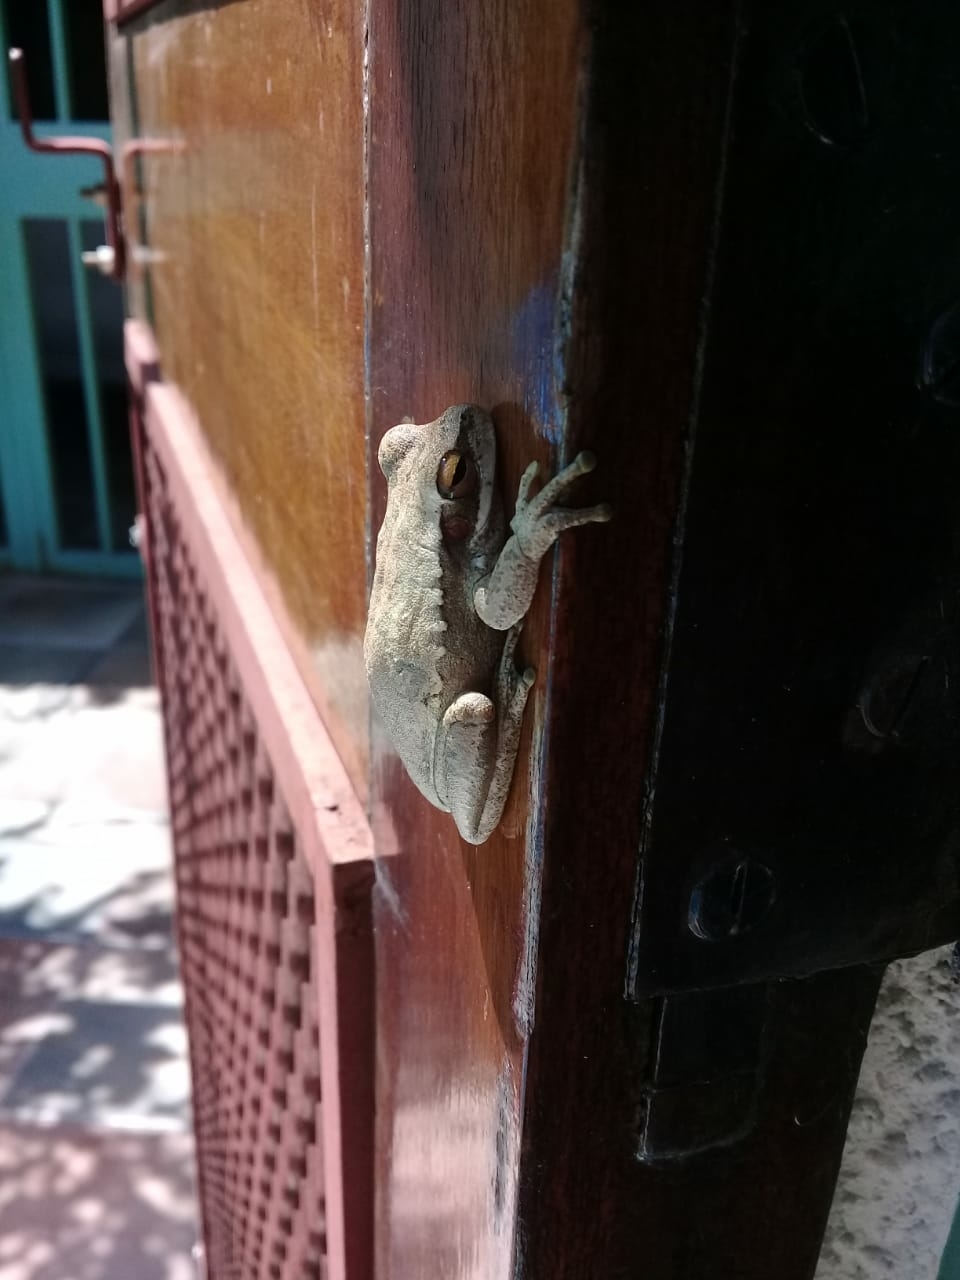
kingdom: Animalia
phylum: Chordata
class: Amphibia
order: Anura
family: Hylidae
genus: Boana
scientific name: Boana pulchella
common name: Montevideo treefrog
